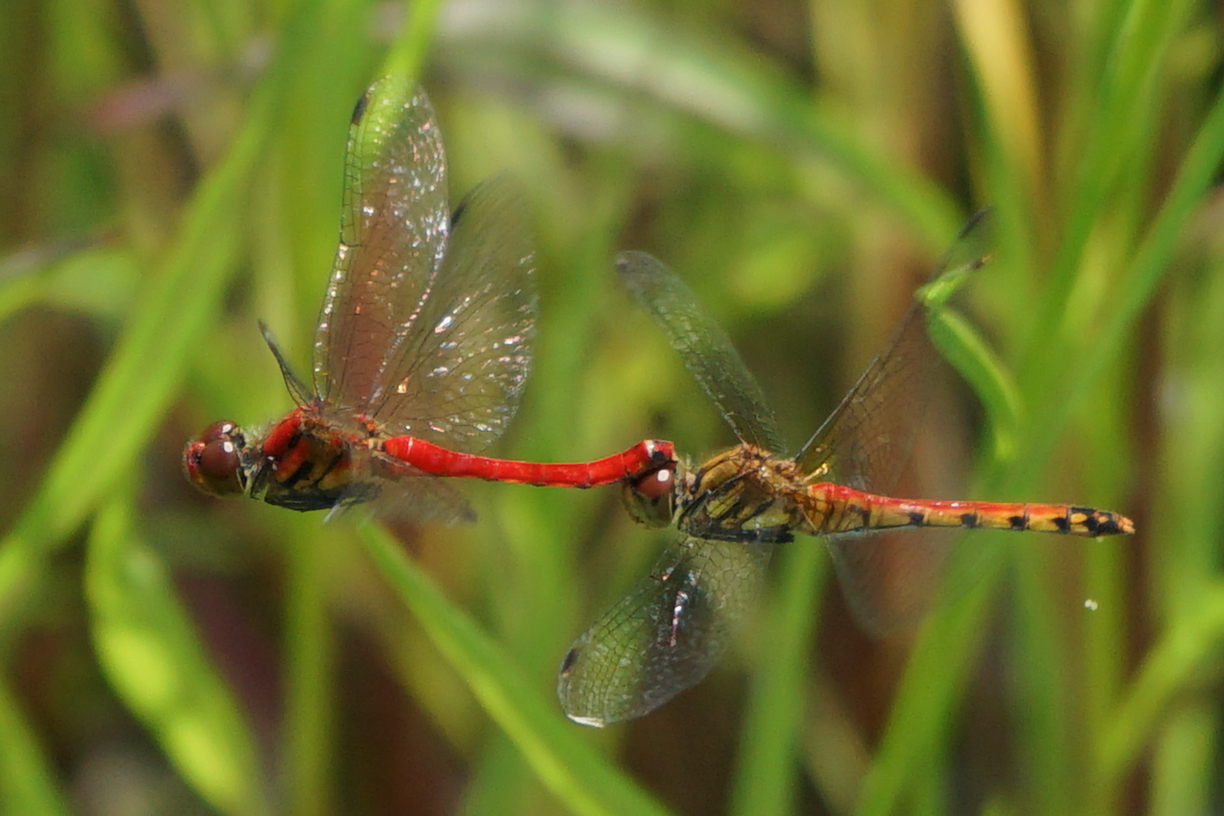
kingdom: Animalia
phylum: Arthropoda
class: Insecta
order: Odonata
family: Libellulidae
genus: Sympetrum
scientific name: Sympetrum darwinianum
